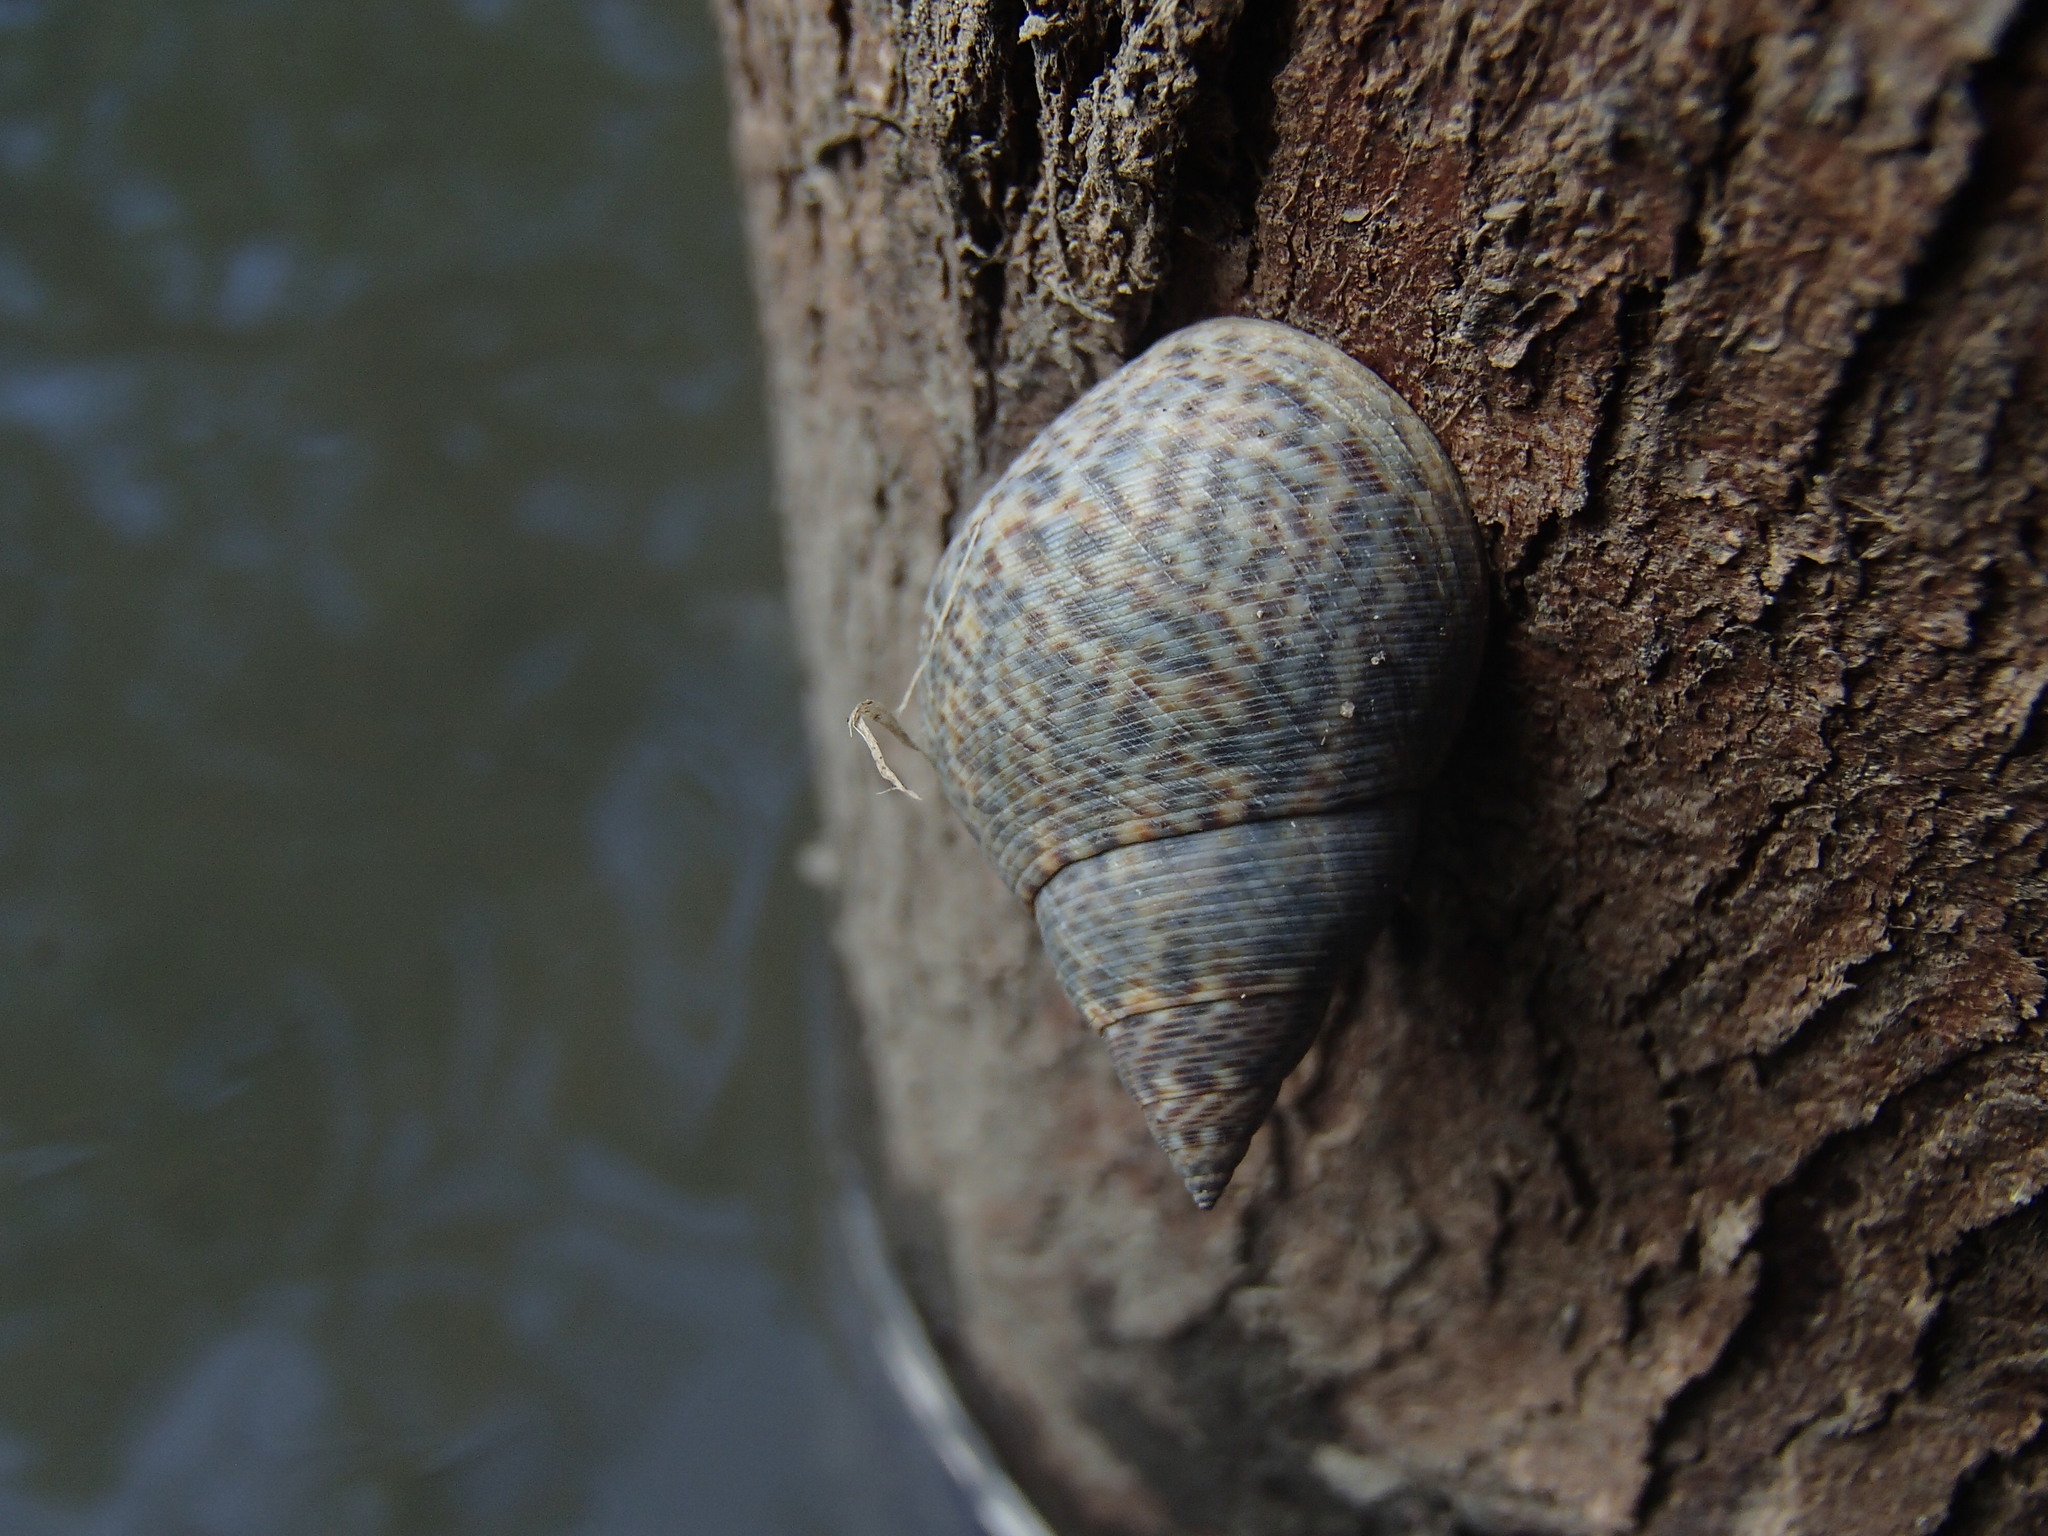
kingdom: Animalia
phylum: Mollusca
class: Gastropoda
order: Littorinimorpha
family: Littorinidae
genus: Littoraria
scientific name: Littoraria angulifera
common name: Mangrove periwinkle
